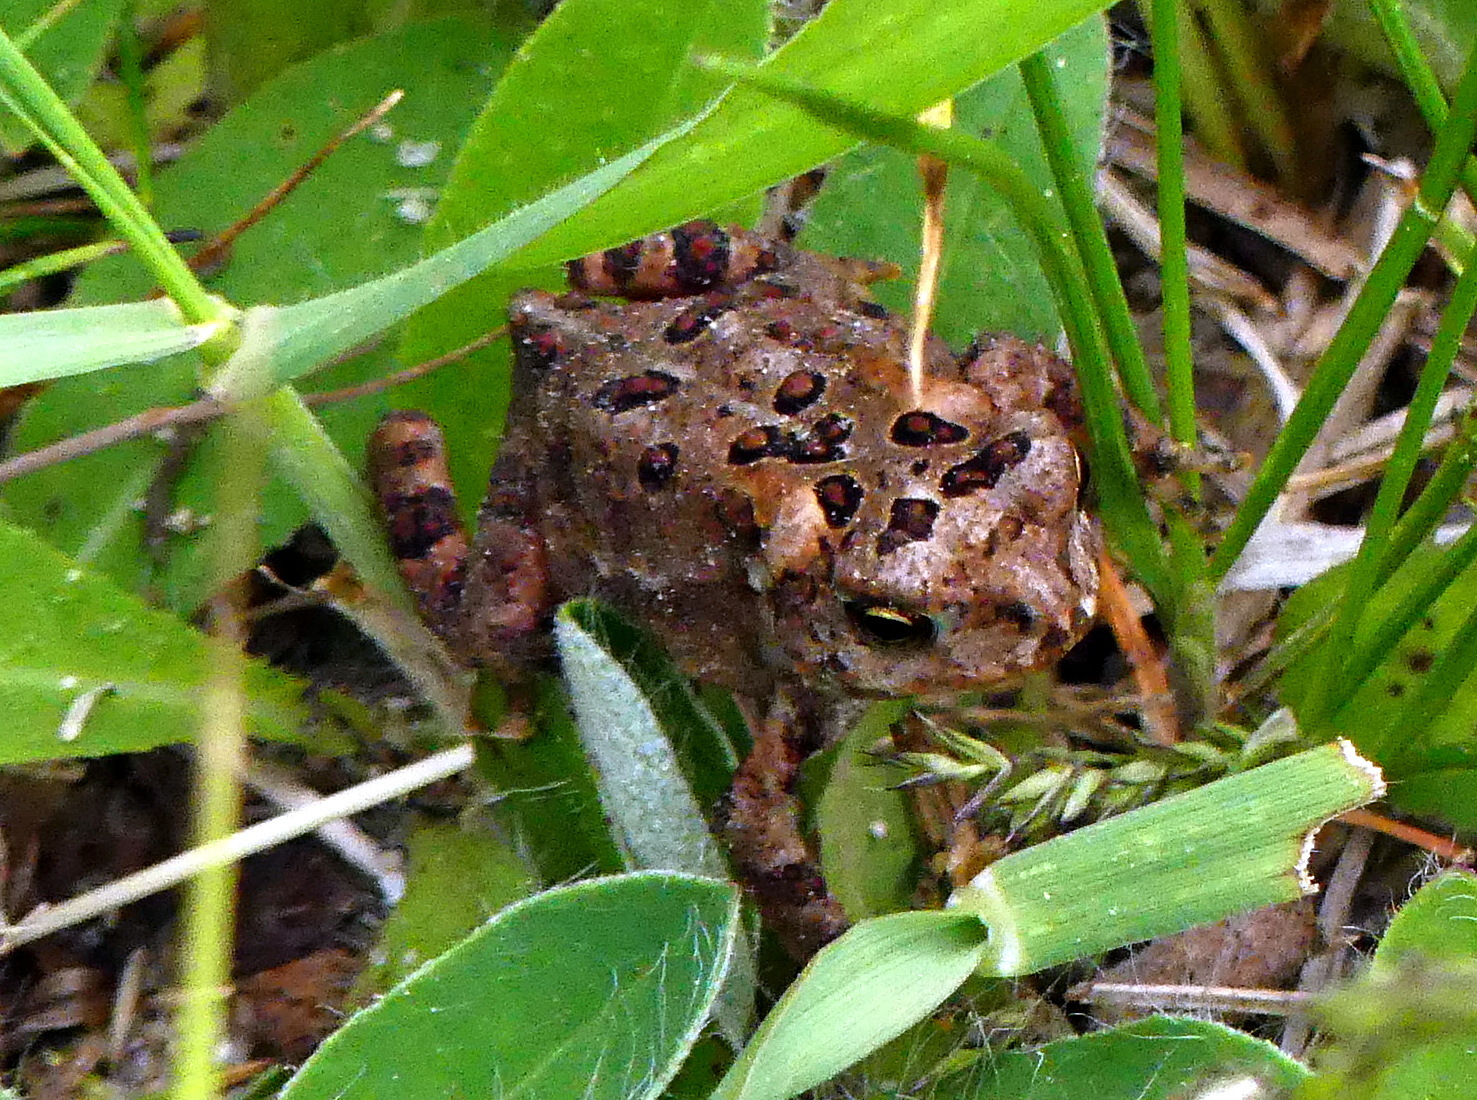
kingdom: Animalia
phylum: Chordata
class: Amphibia
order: Anura
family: Bufonidae
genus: Anaxyrus
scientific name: Anaxyrus americanus
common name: American toad
